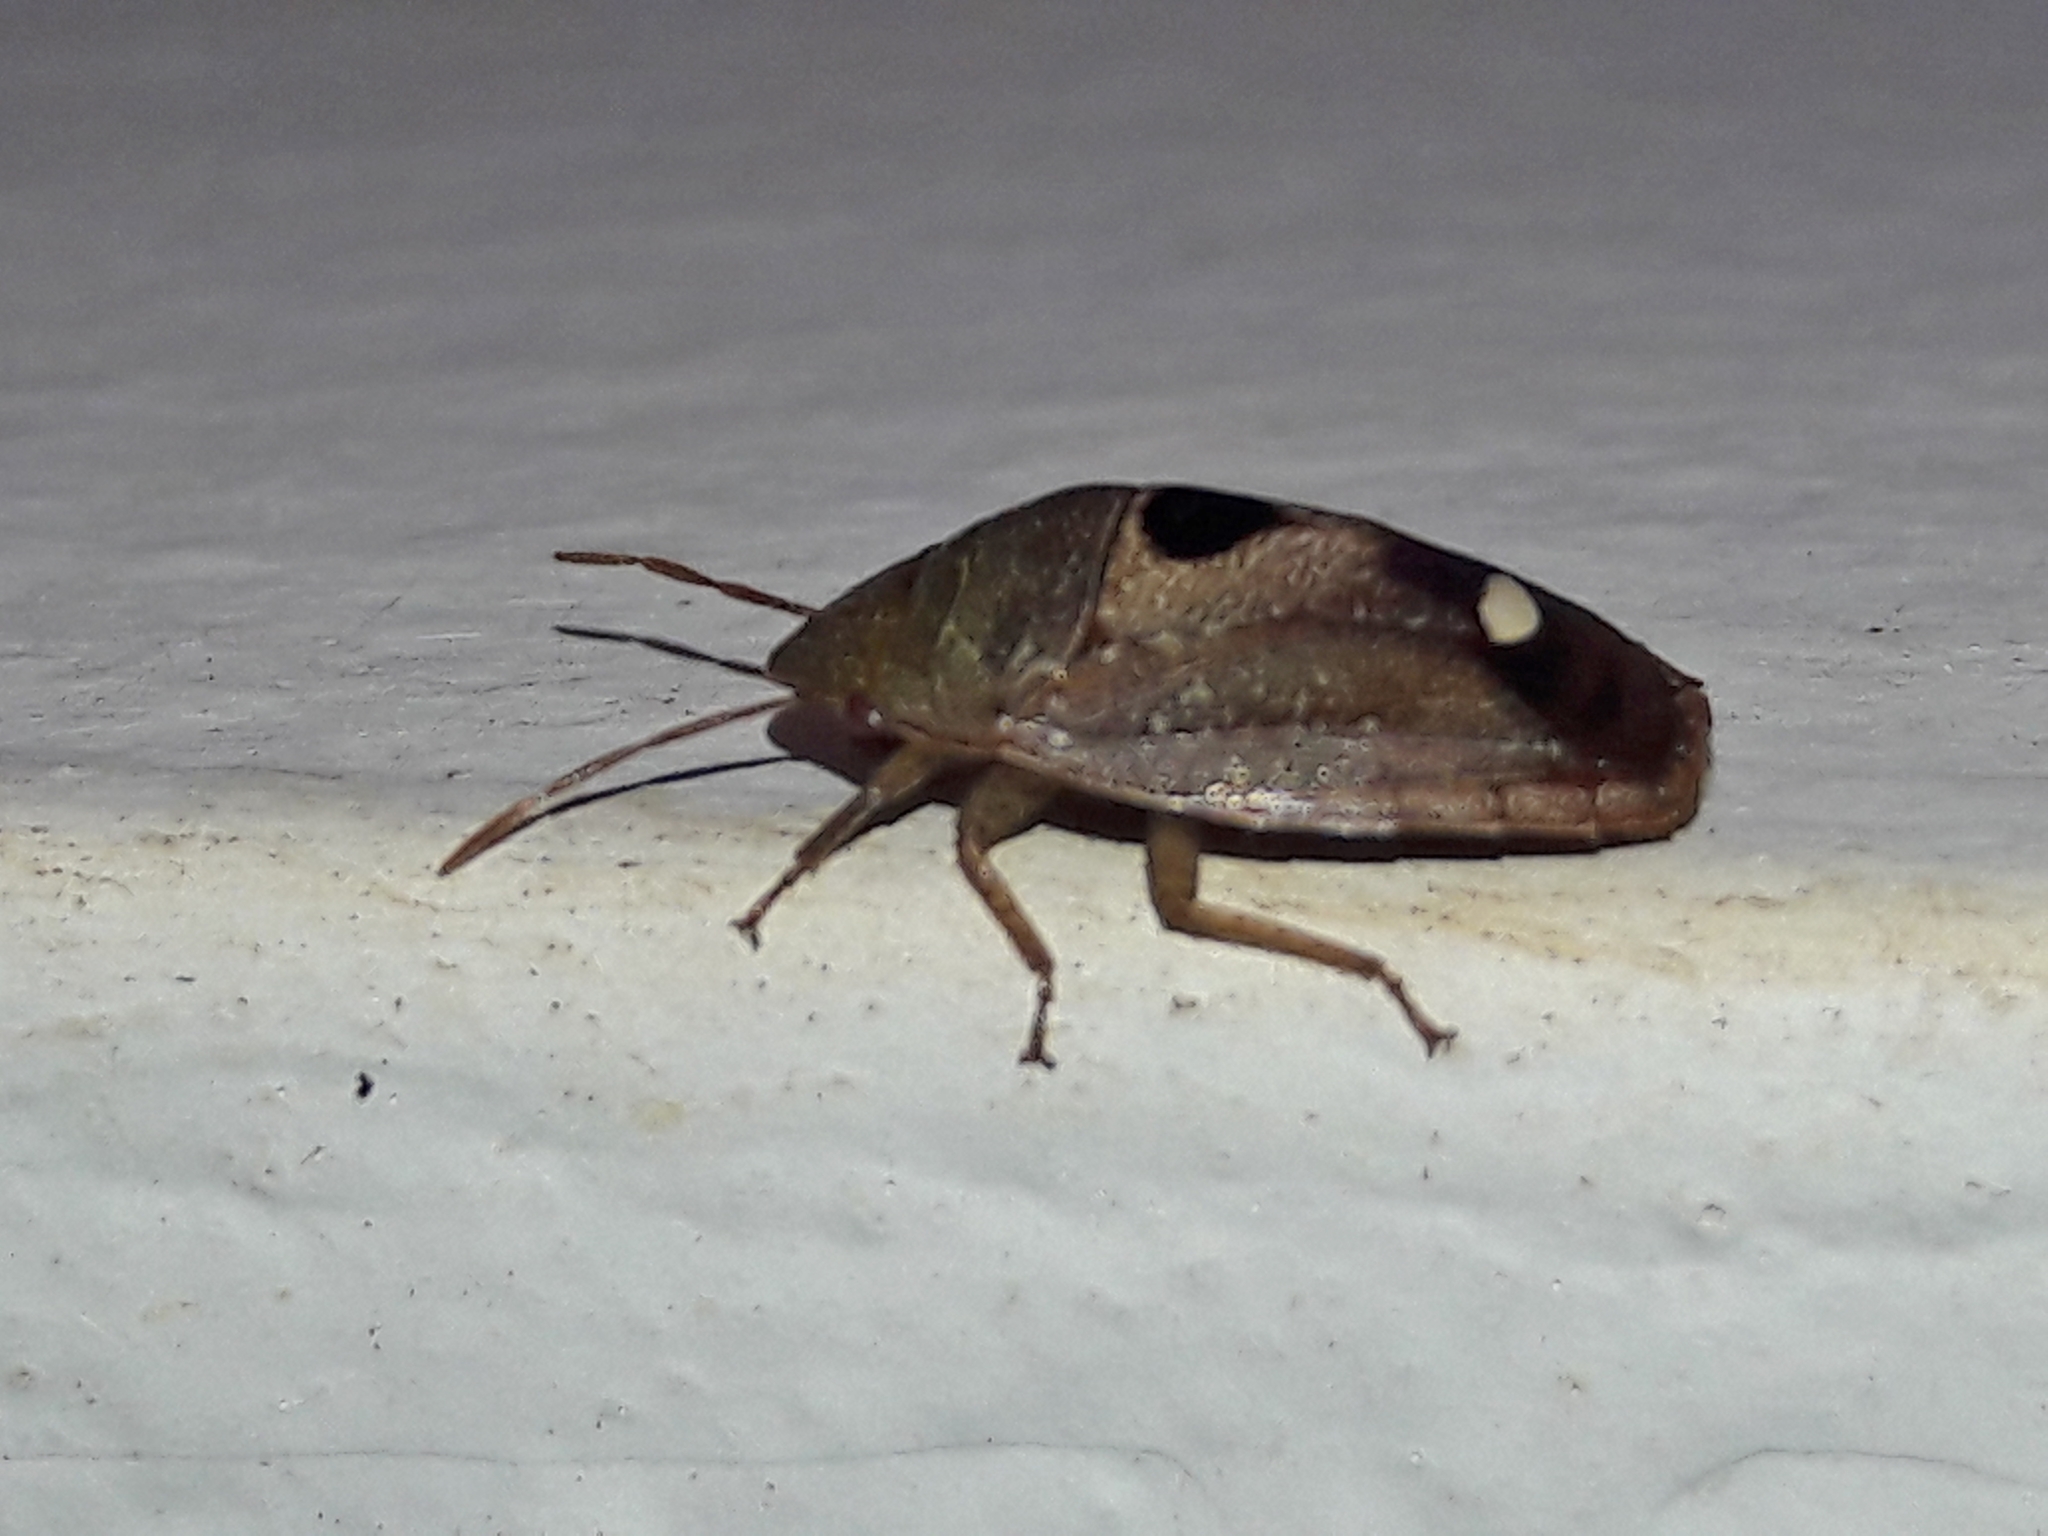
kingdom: Animalia
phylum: Arthropoda
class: Insecta
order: Hemiptera
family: Pentatomidae
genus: Alveostethus
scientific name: Alveostethus politus
